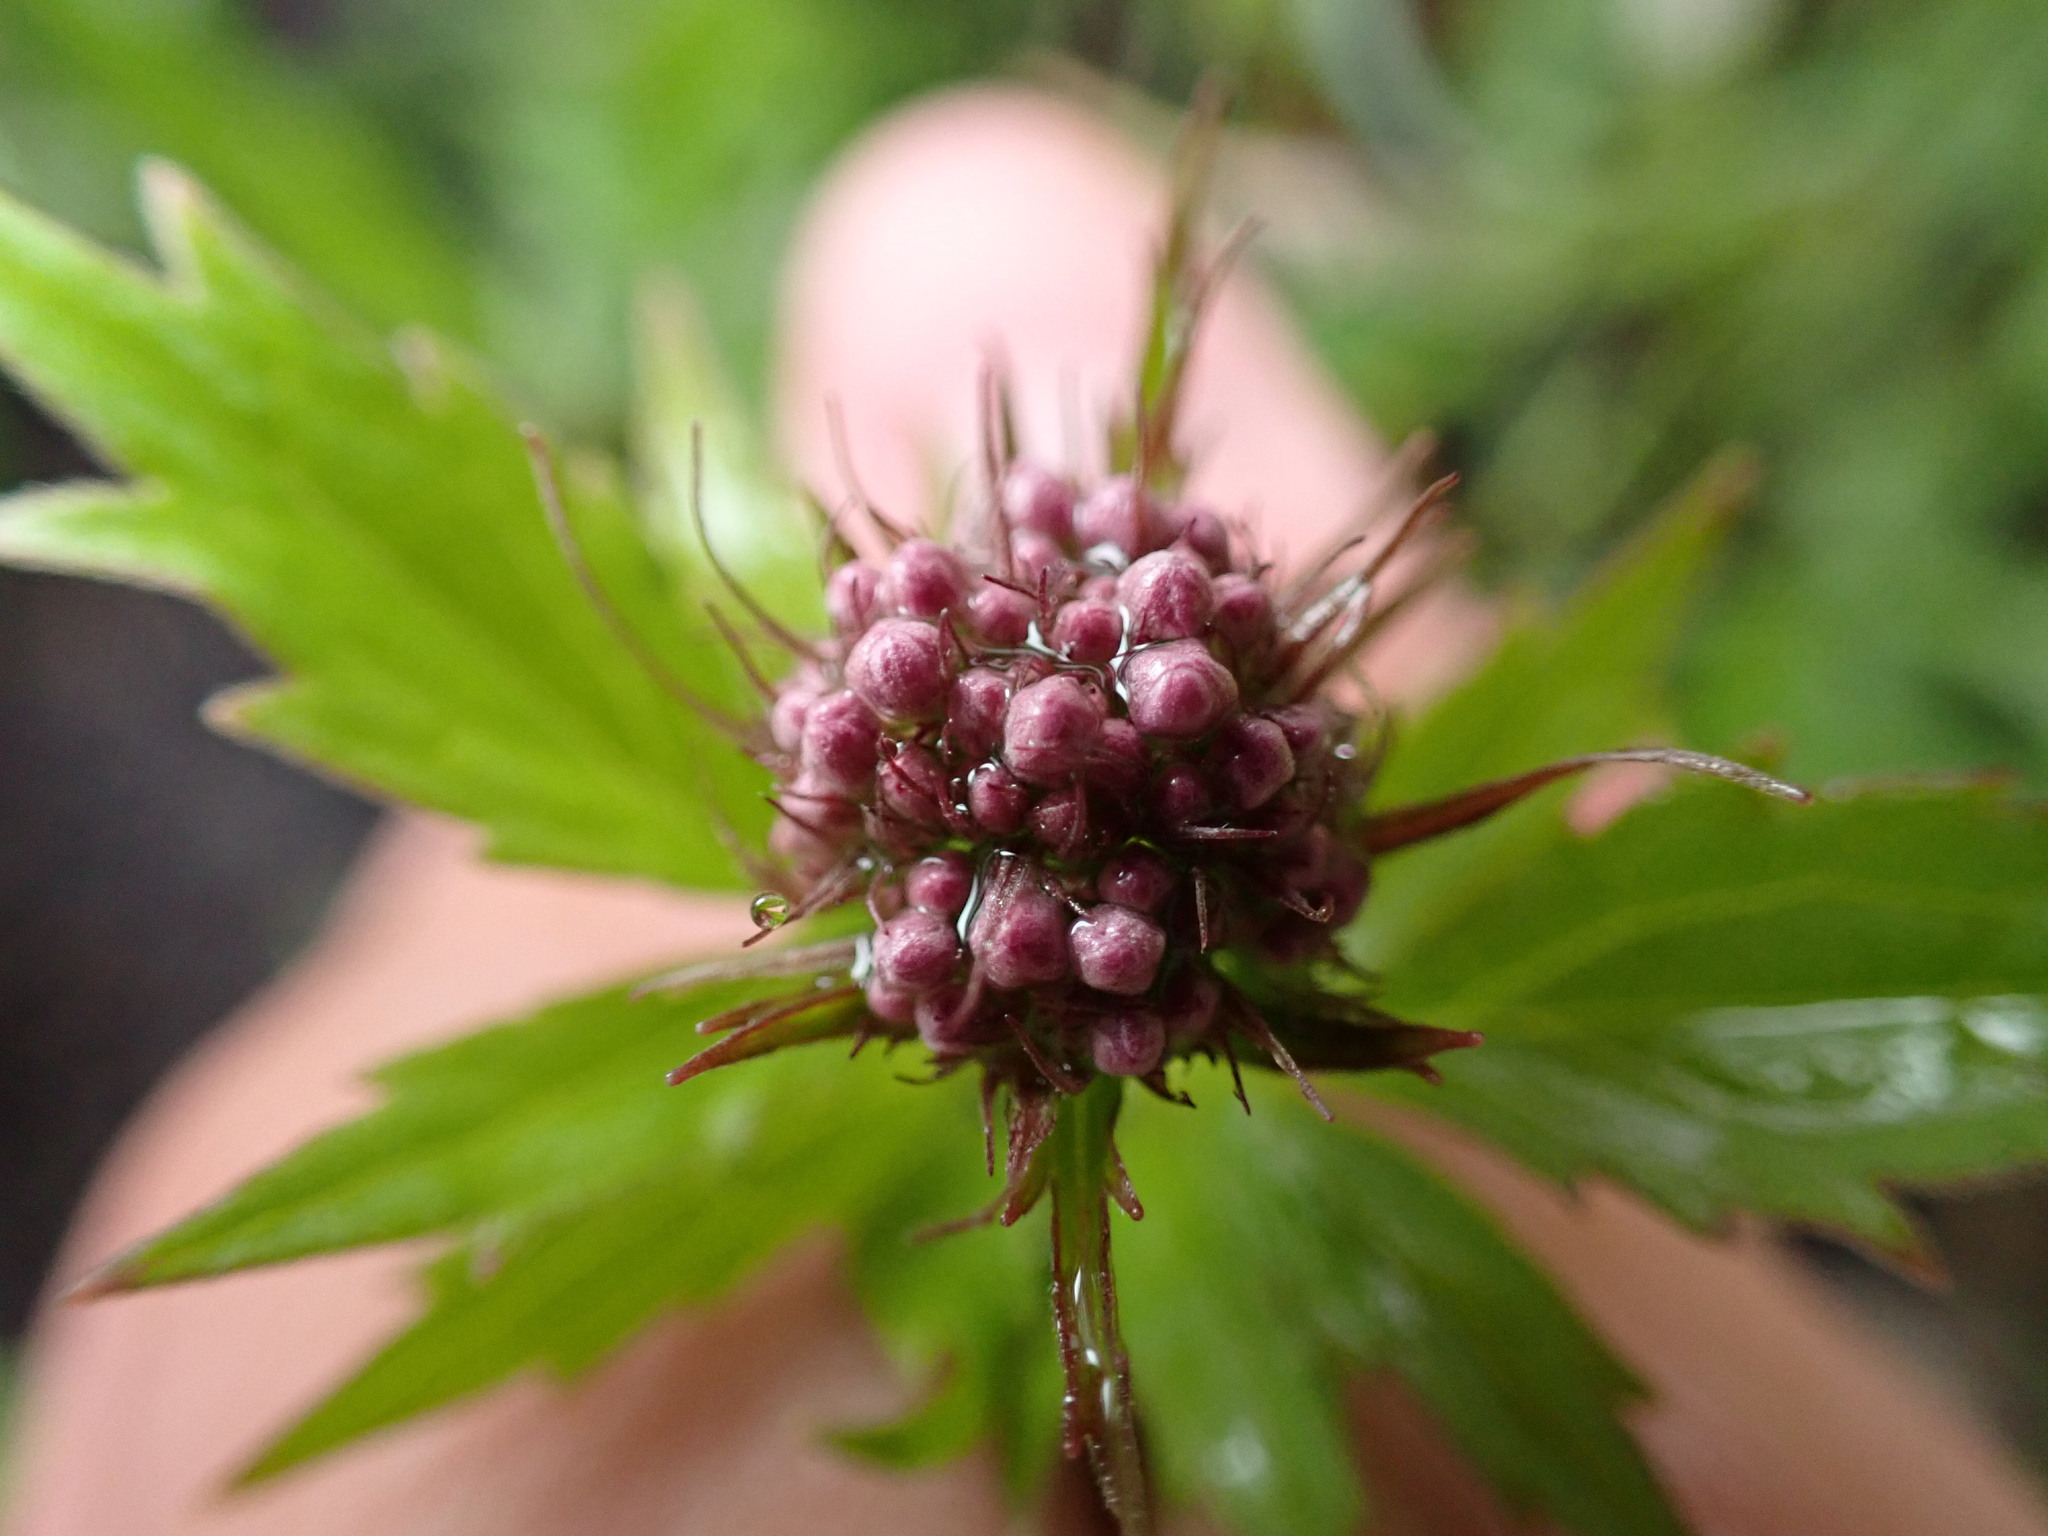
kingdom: Plantae
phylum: Tracheophyta
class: Magnoliopsida
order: Dipsacales
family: Caprifoliaceae
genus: Valeriana
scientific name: Valeriana fauriei
